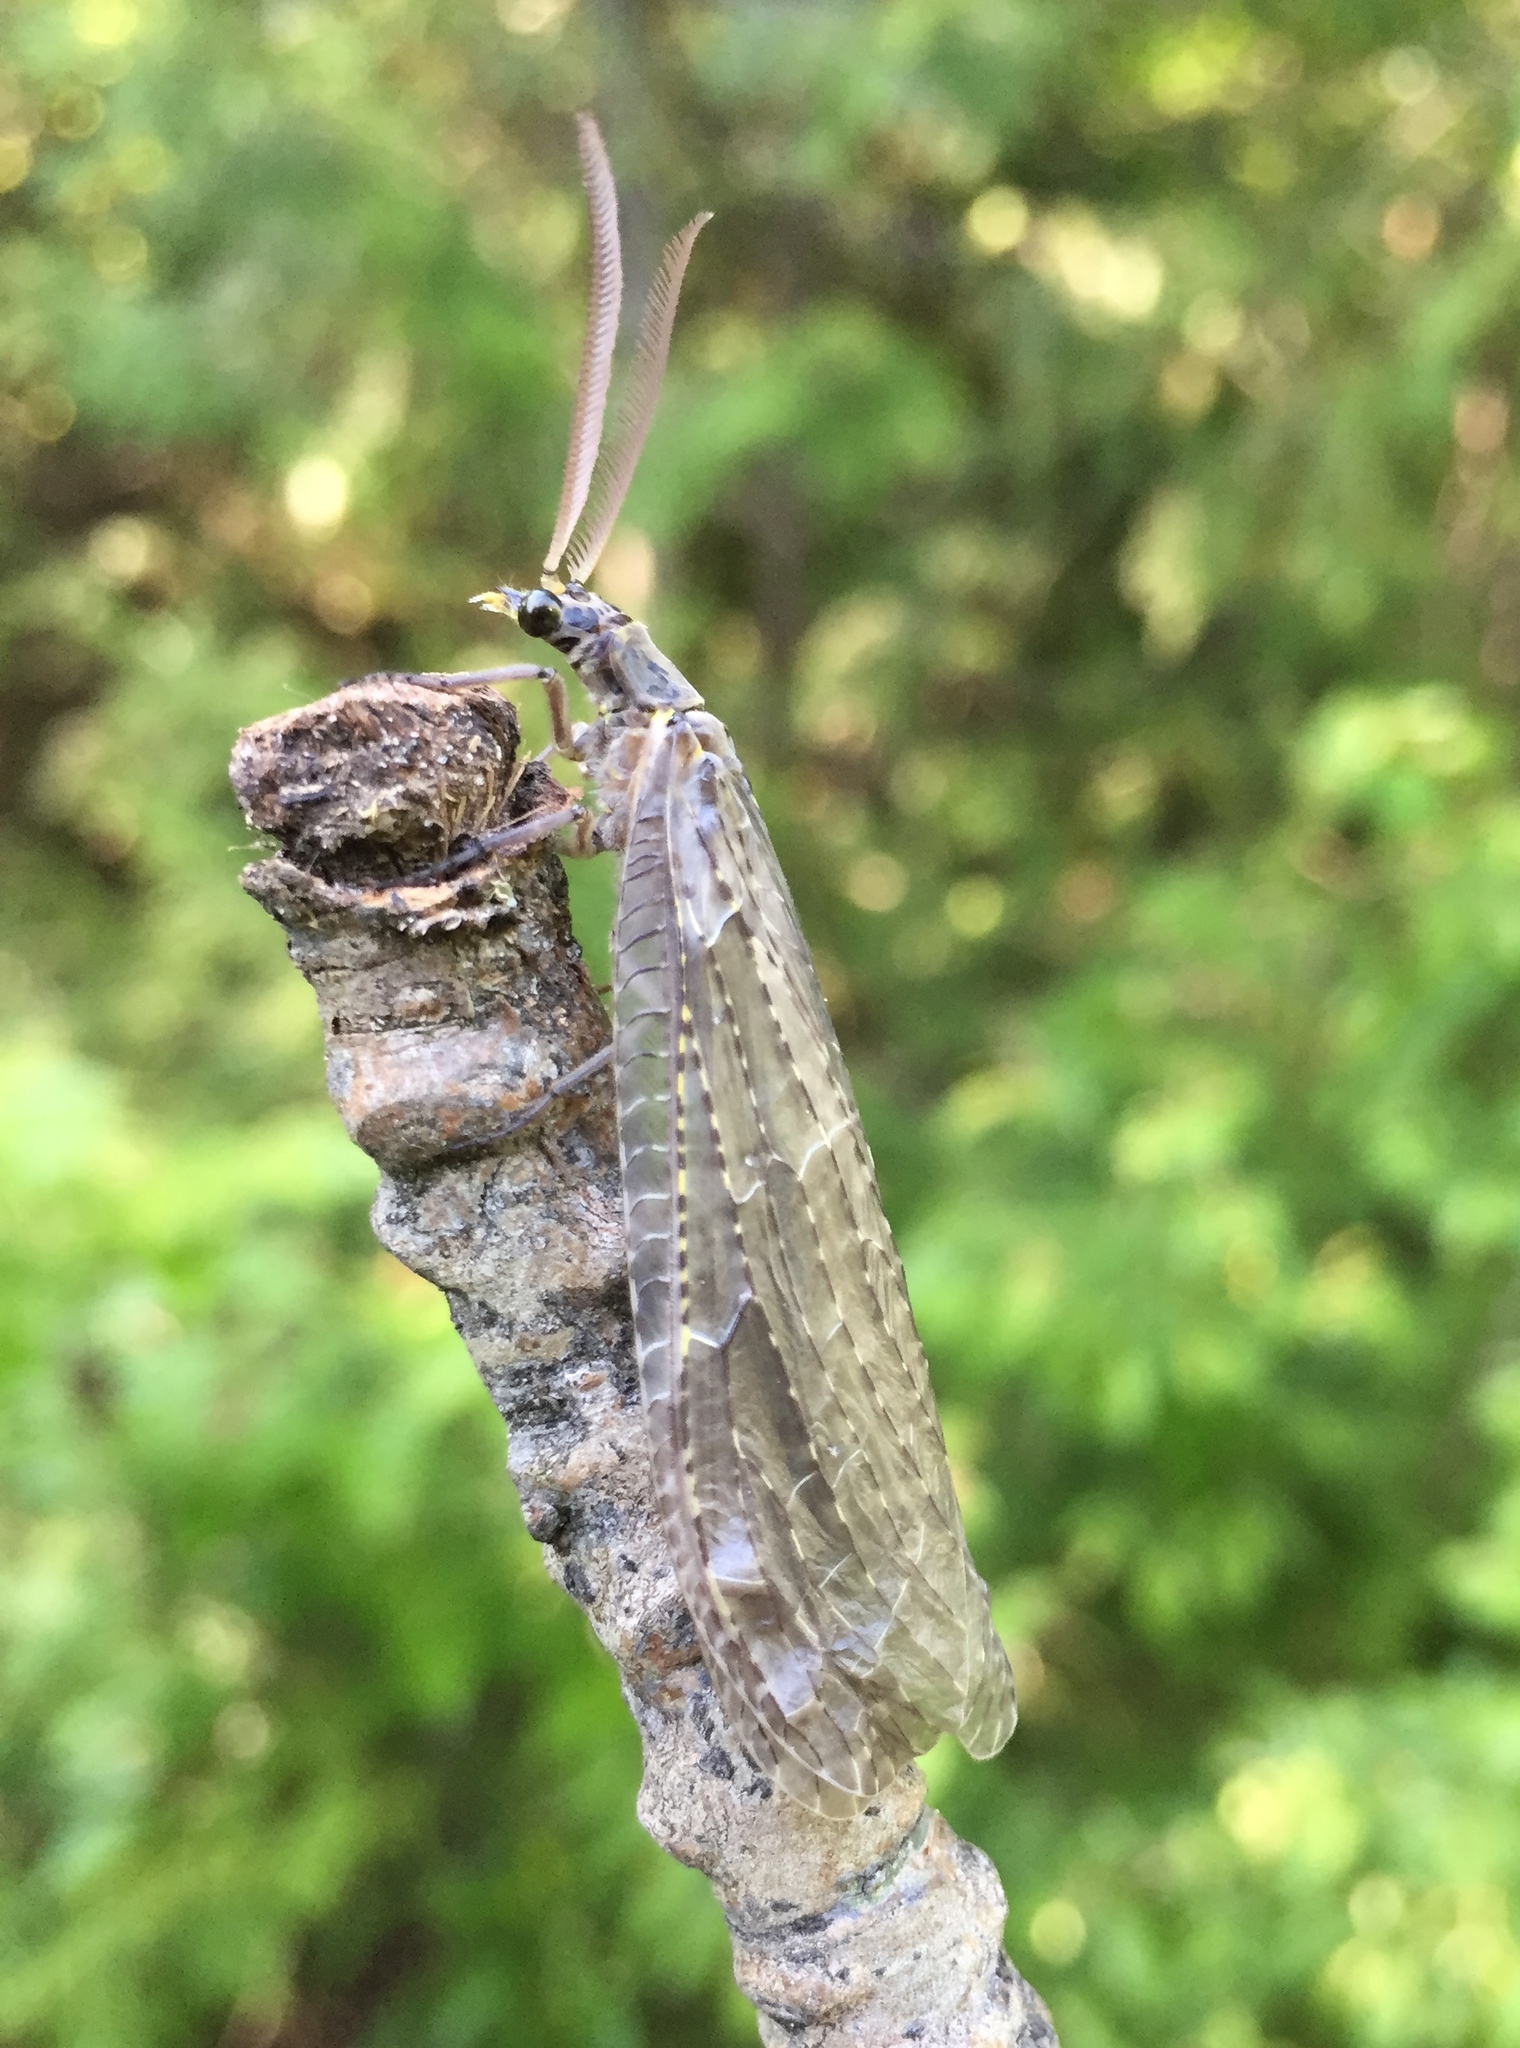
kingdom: Animalia
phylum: Arthropoda
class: Insecta
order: Megaloptera
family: Corydalidae
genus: Chauliodes
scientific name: Chauliodes rastricornis
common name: Spring fishfly
